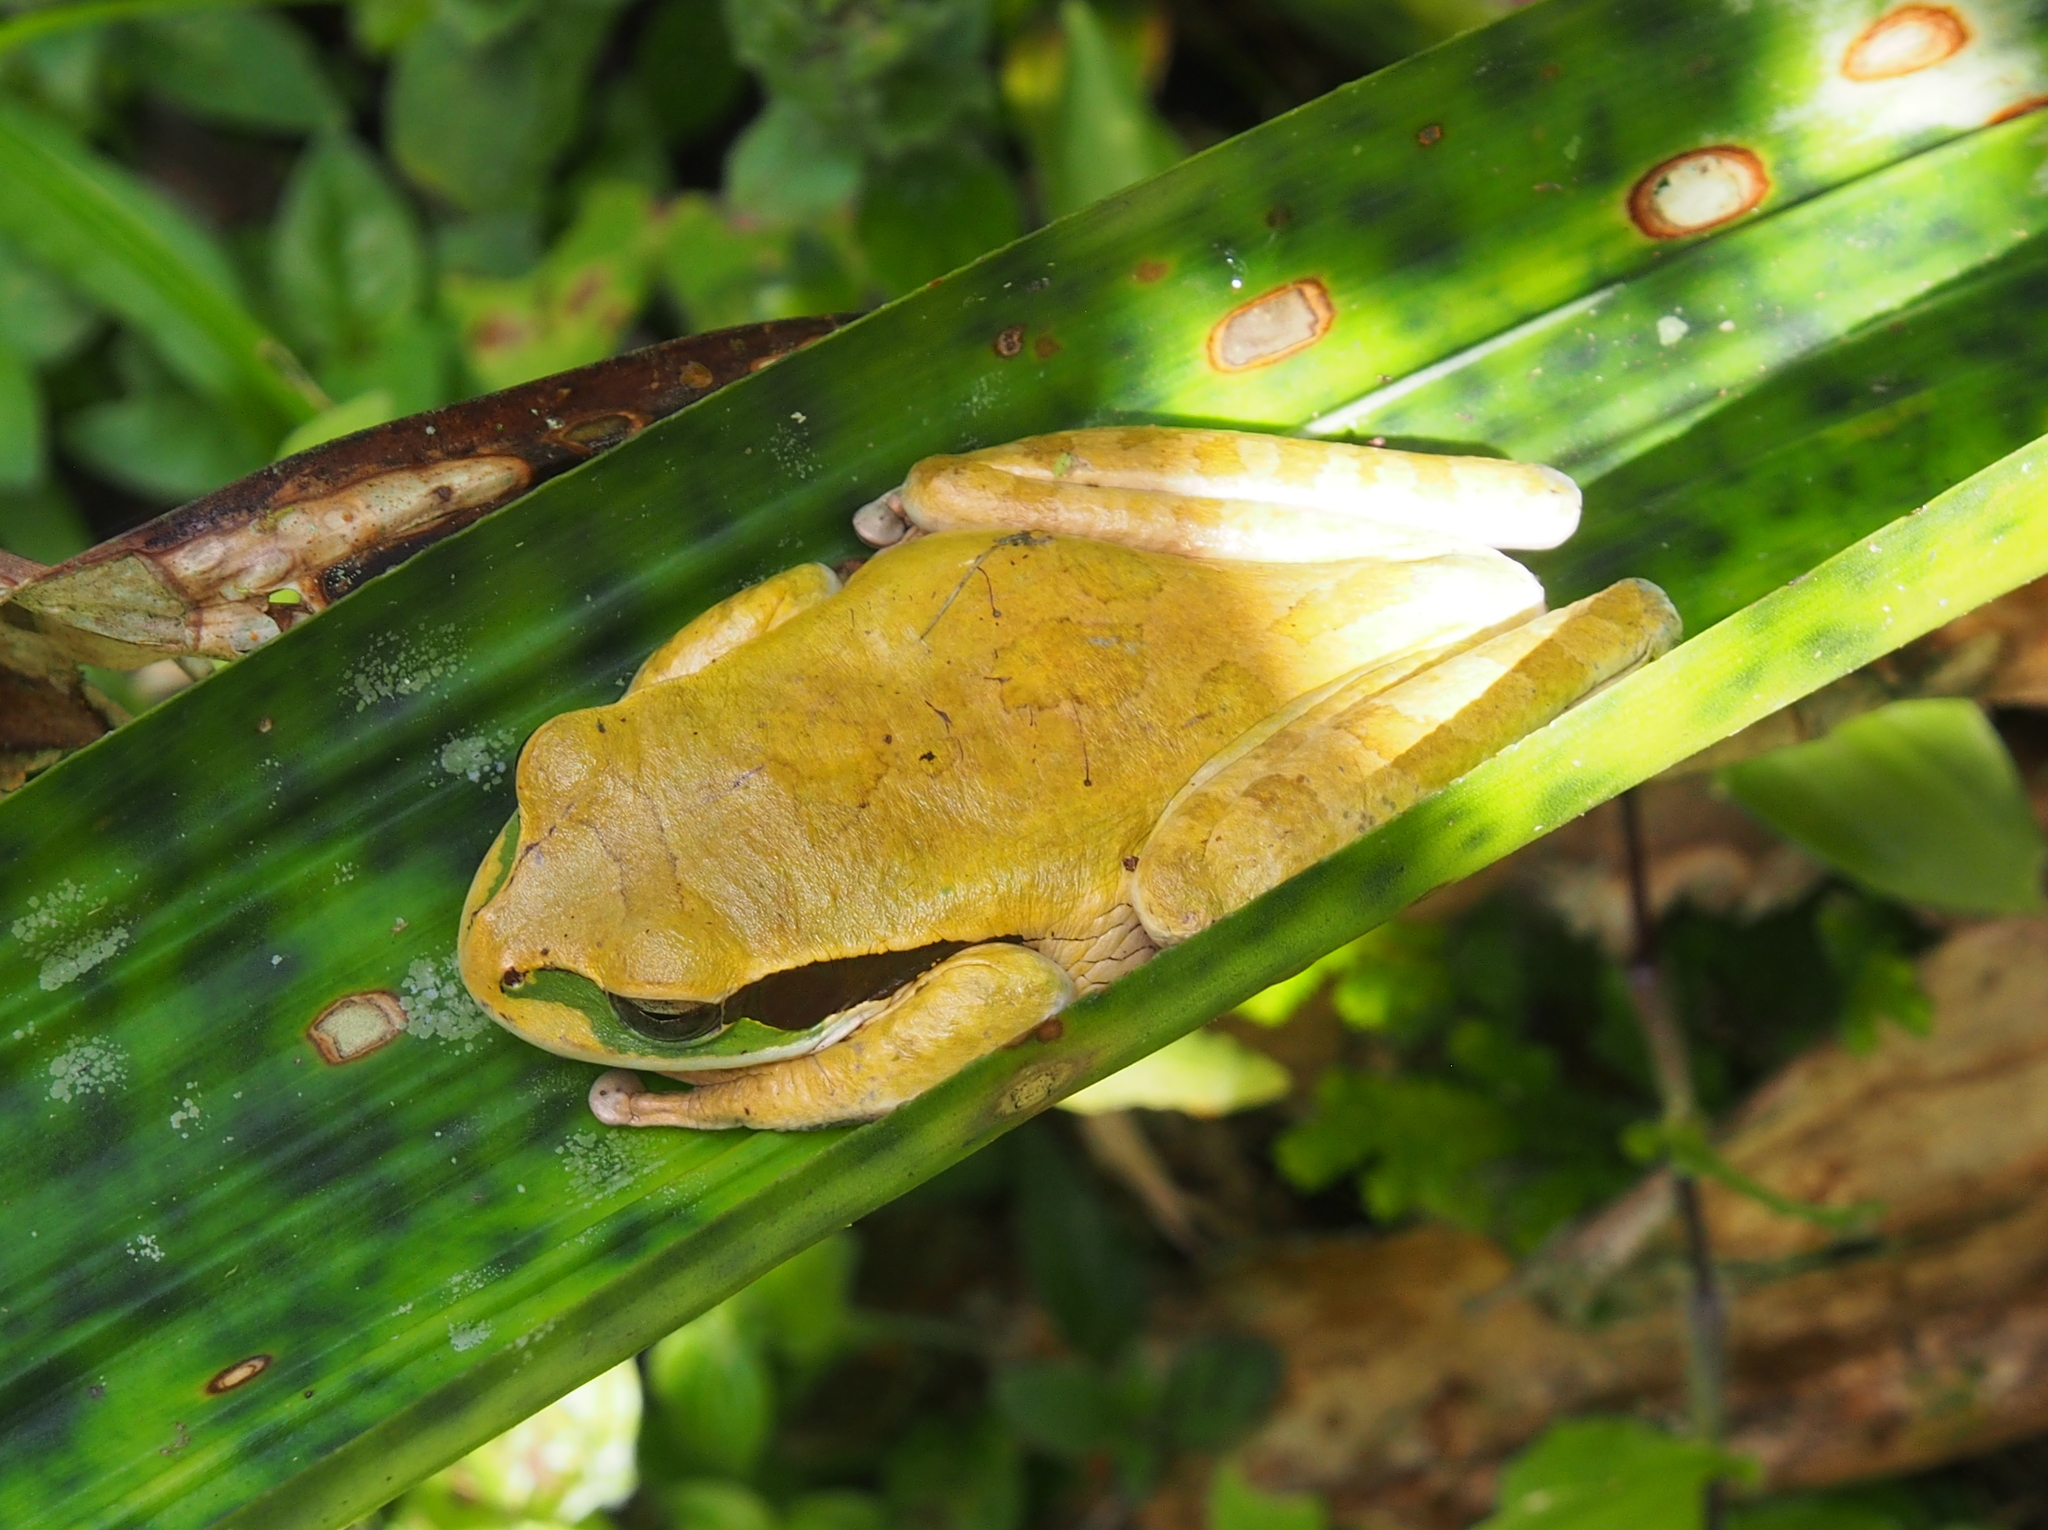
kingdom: Animalia
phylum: Chordata
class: Amphibia
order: Anura
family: Hylidae
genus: Smilisca
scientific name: Smilisca phaeota
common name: Central american smilisca
